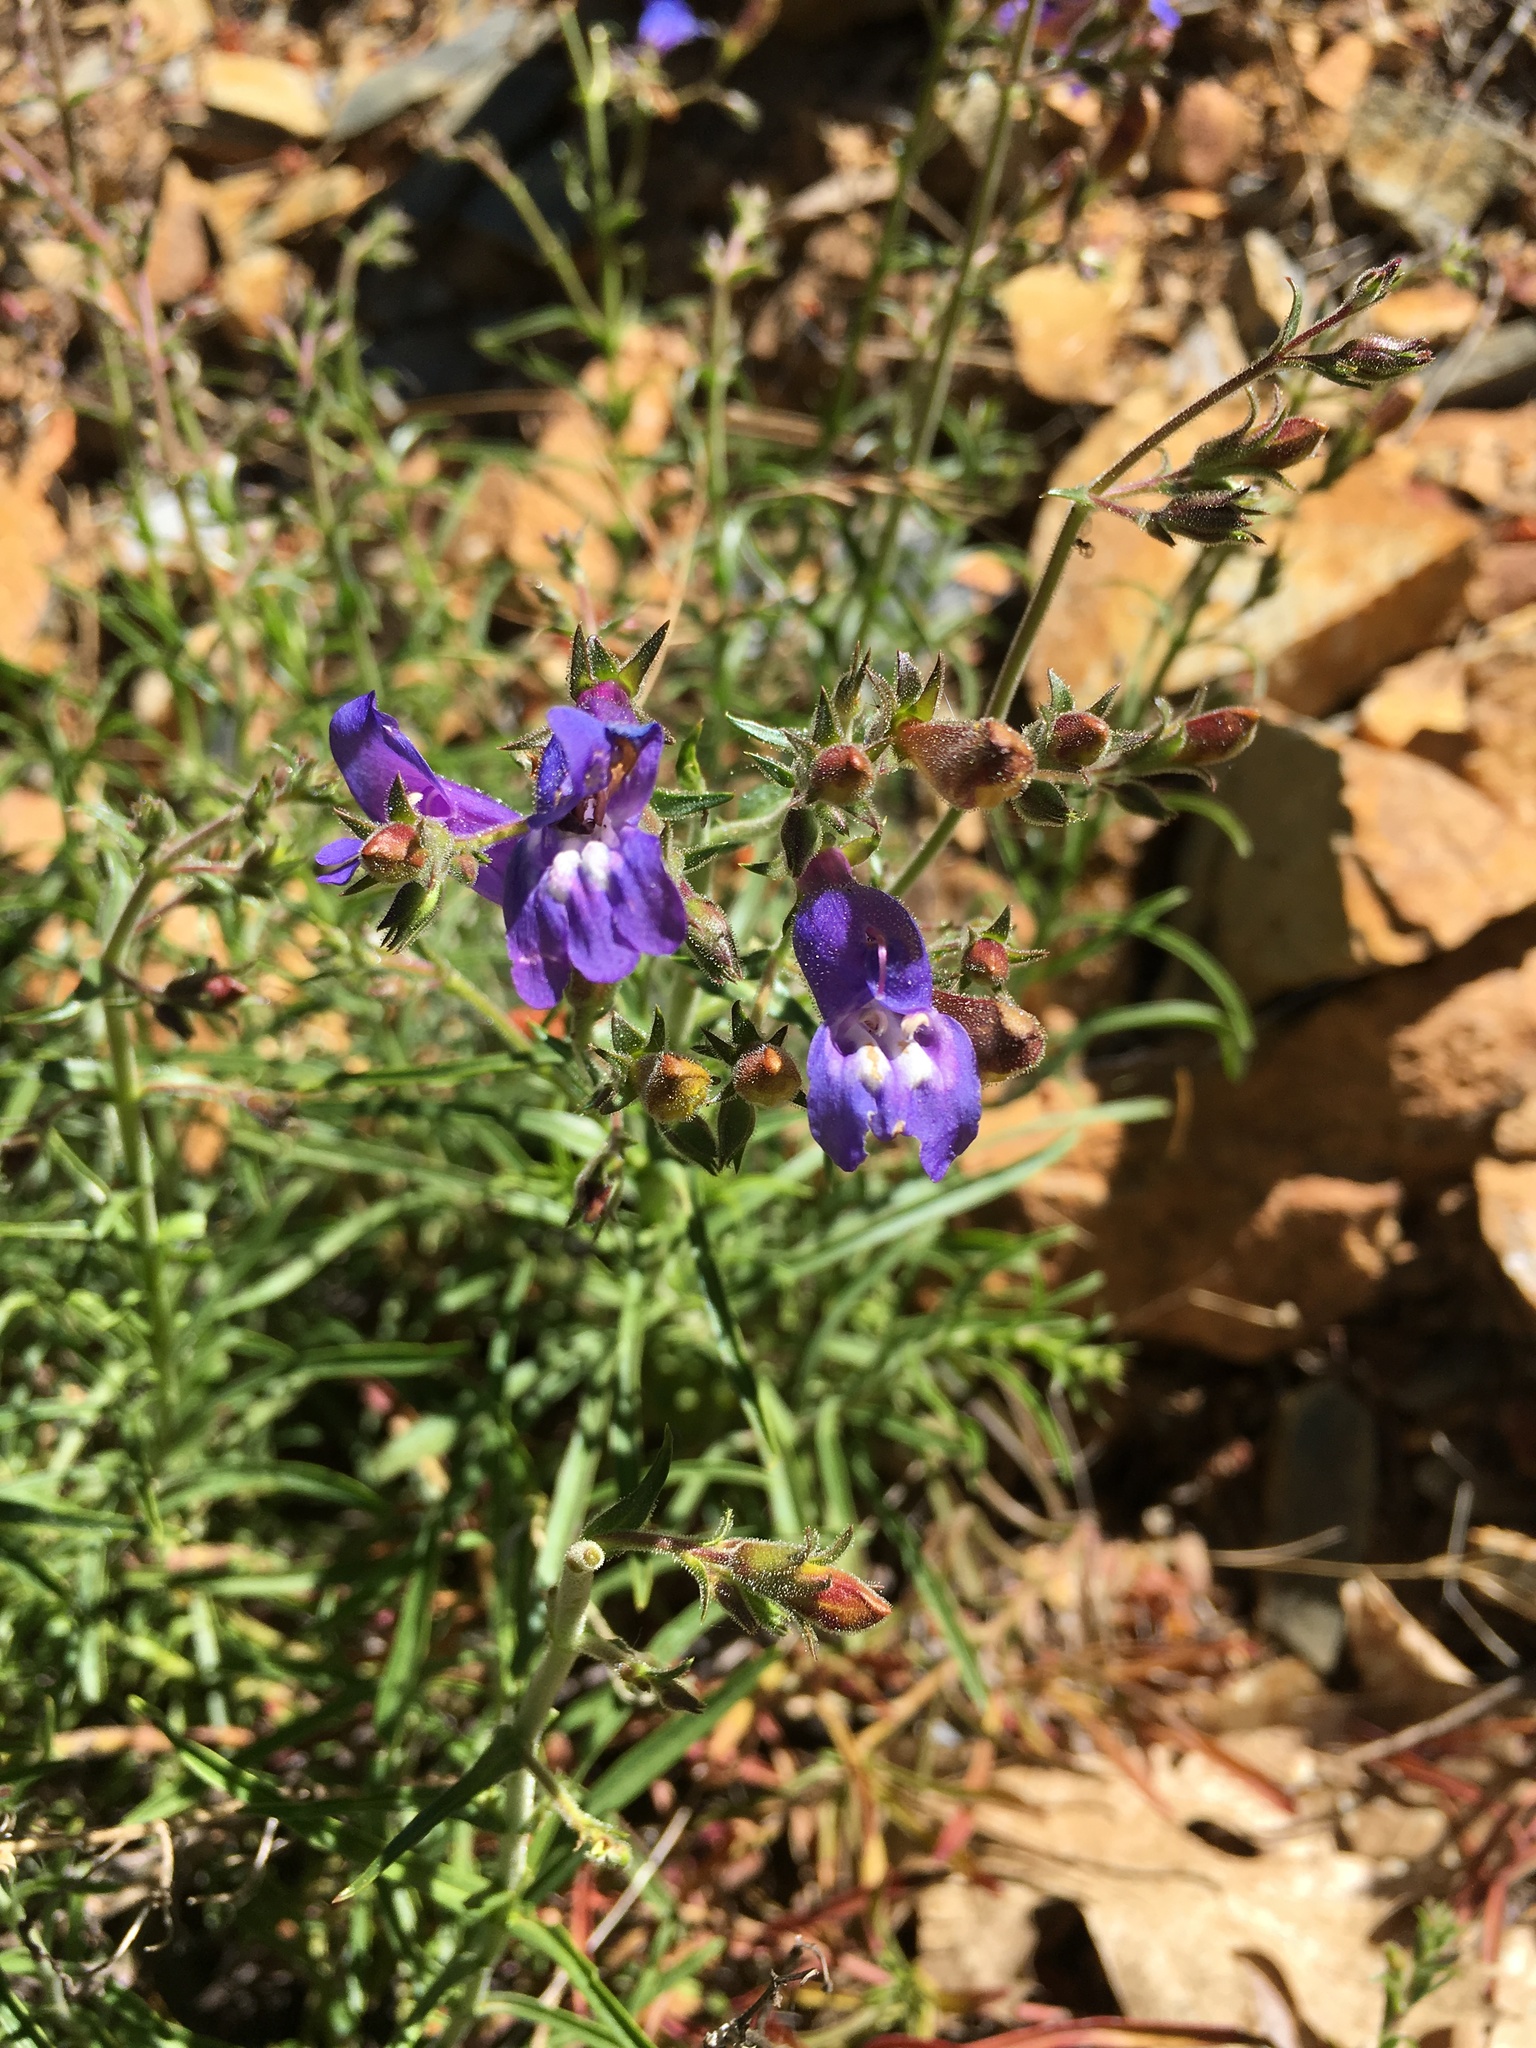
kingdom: Plantae
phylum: Tracheophyta
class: Magnoliopsida
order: Lamiales
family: Plantaginaceae
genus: Penstemon
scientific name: Penstemon filiformis
